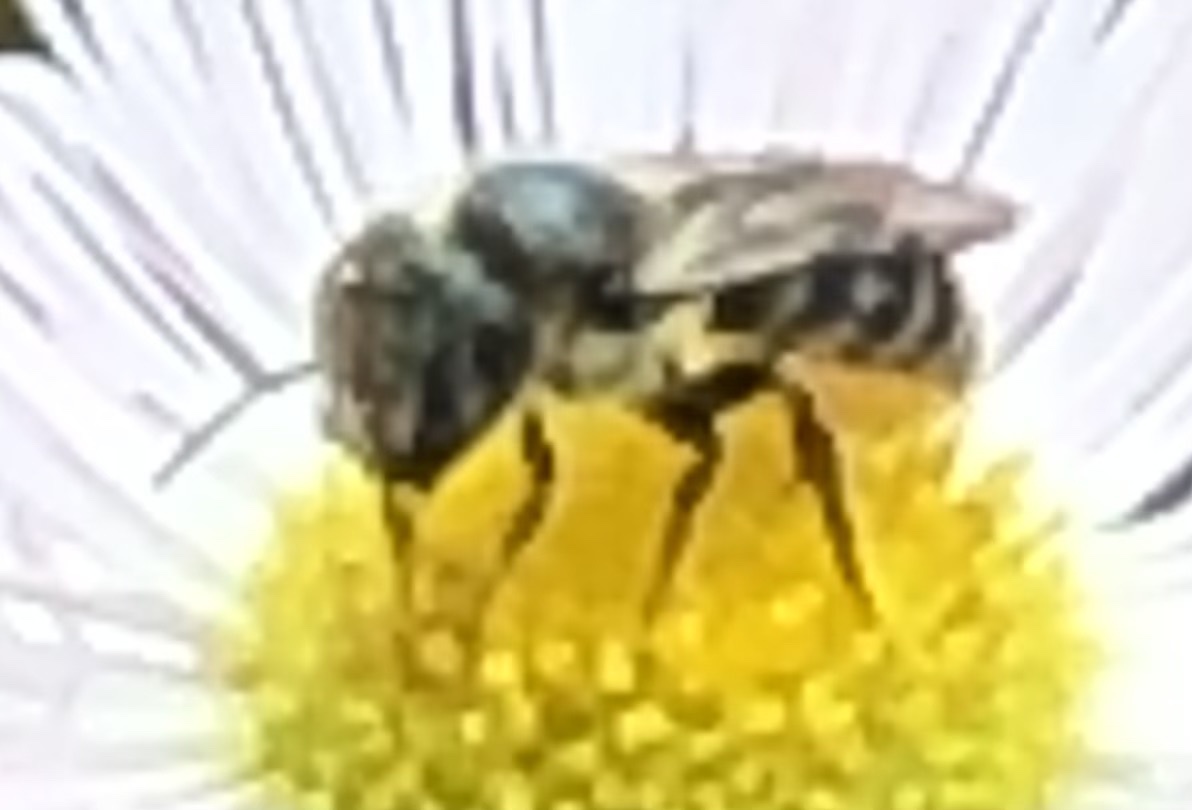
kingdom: Animalia
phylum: Arthropoda
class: Insecta
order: Hymenoptera
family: Megachilidae
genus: Osmia
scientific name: Osmia georgica
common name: Georgia mason
